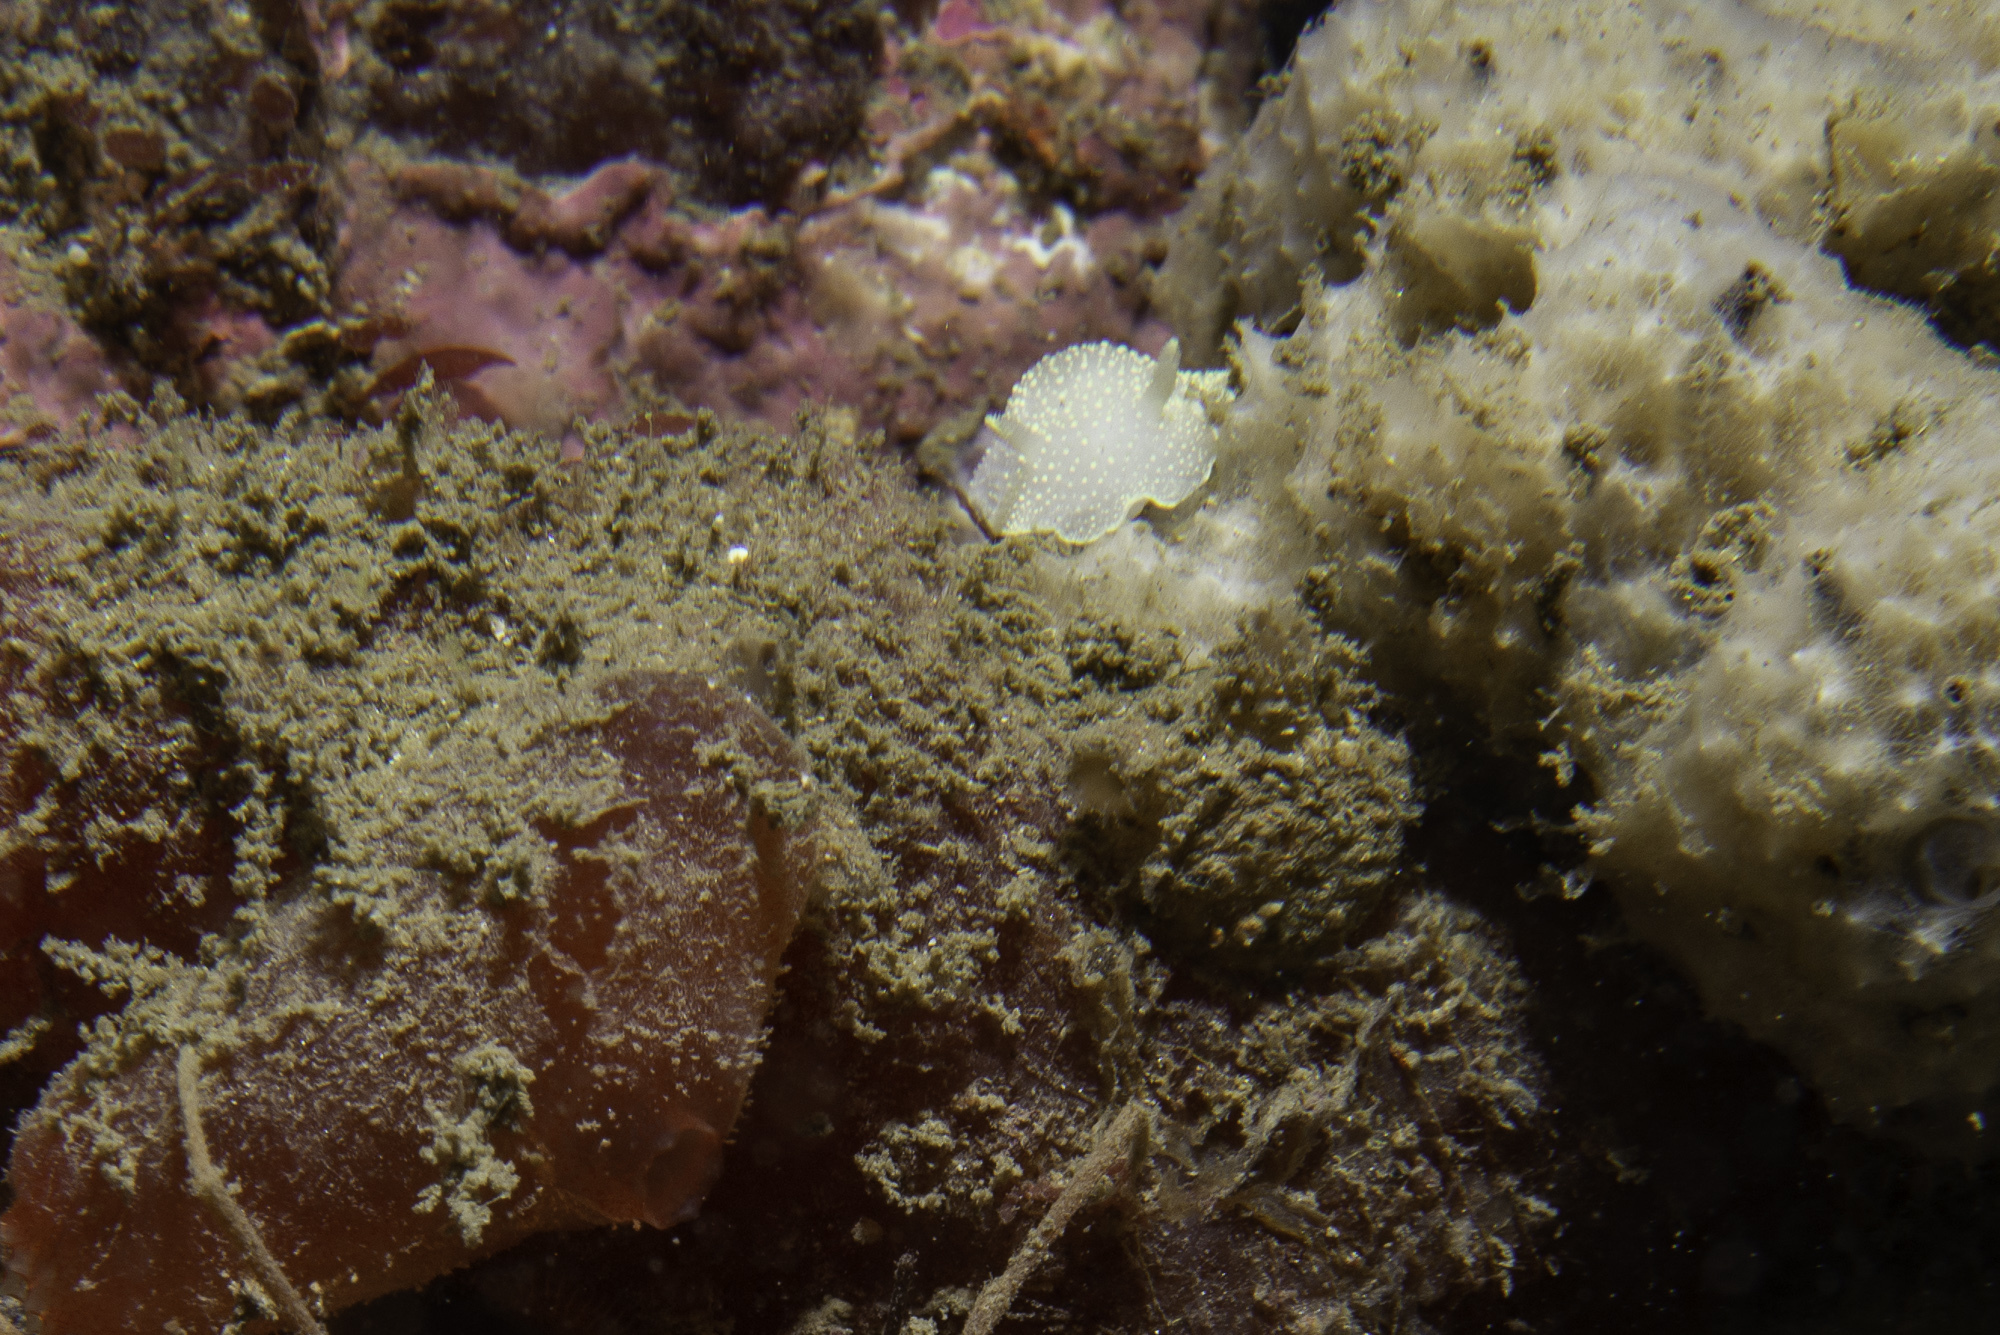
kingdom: Animalia
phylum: Mollusca
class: Gastropoda
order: Nudibranchia
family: Cadlinidae
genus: Cadlina
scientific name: Cadlina laevis
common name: White atlantic cadlina
